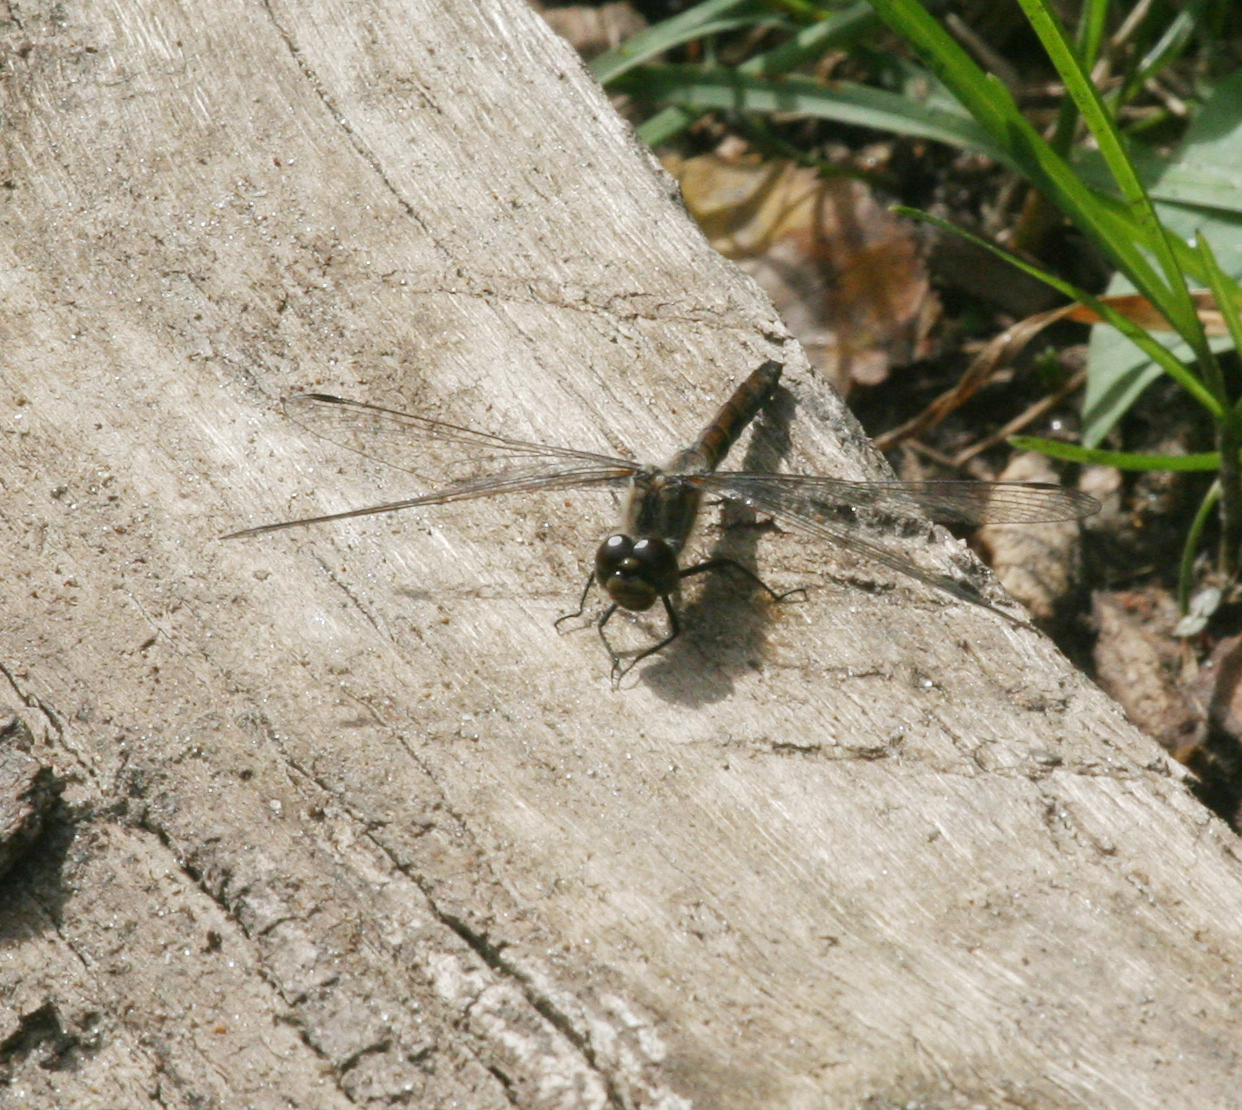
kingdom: Animalia
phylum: Arthropoda
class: Insecta
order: Odonata
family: Libellulidae
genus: Sympetrum
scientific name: Sympetrum danae
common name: Black darter
